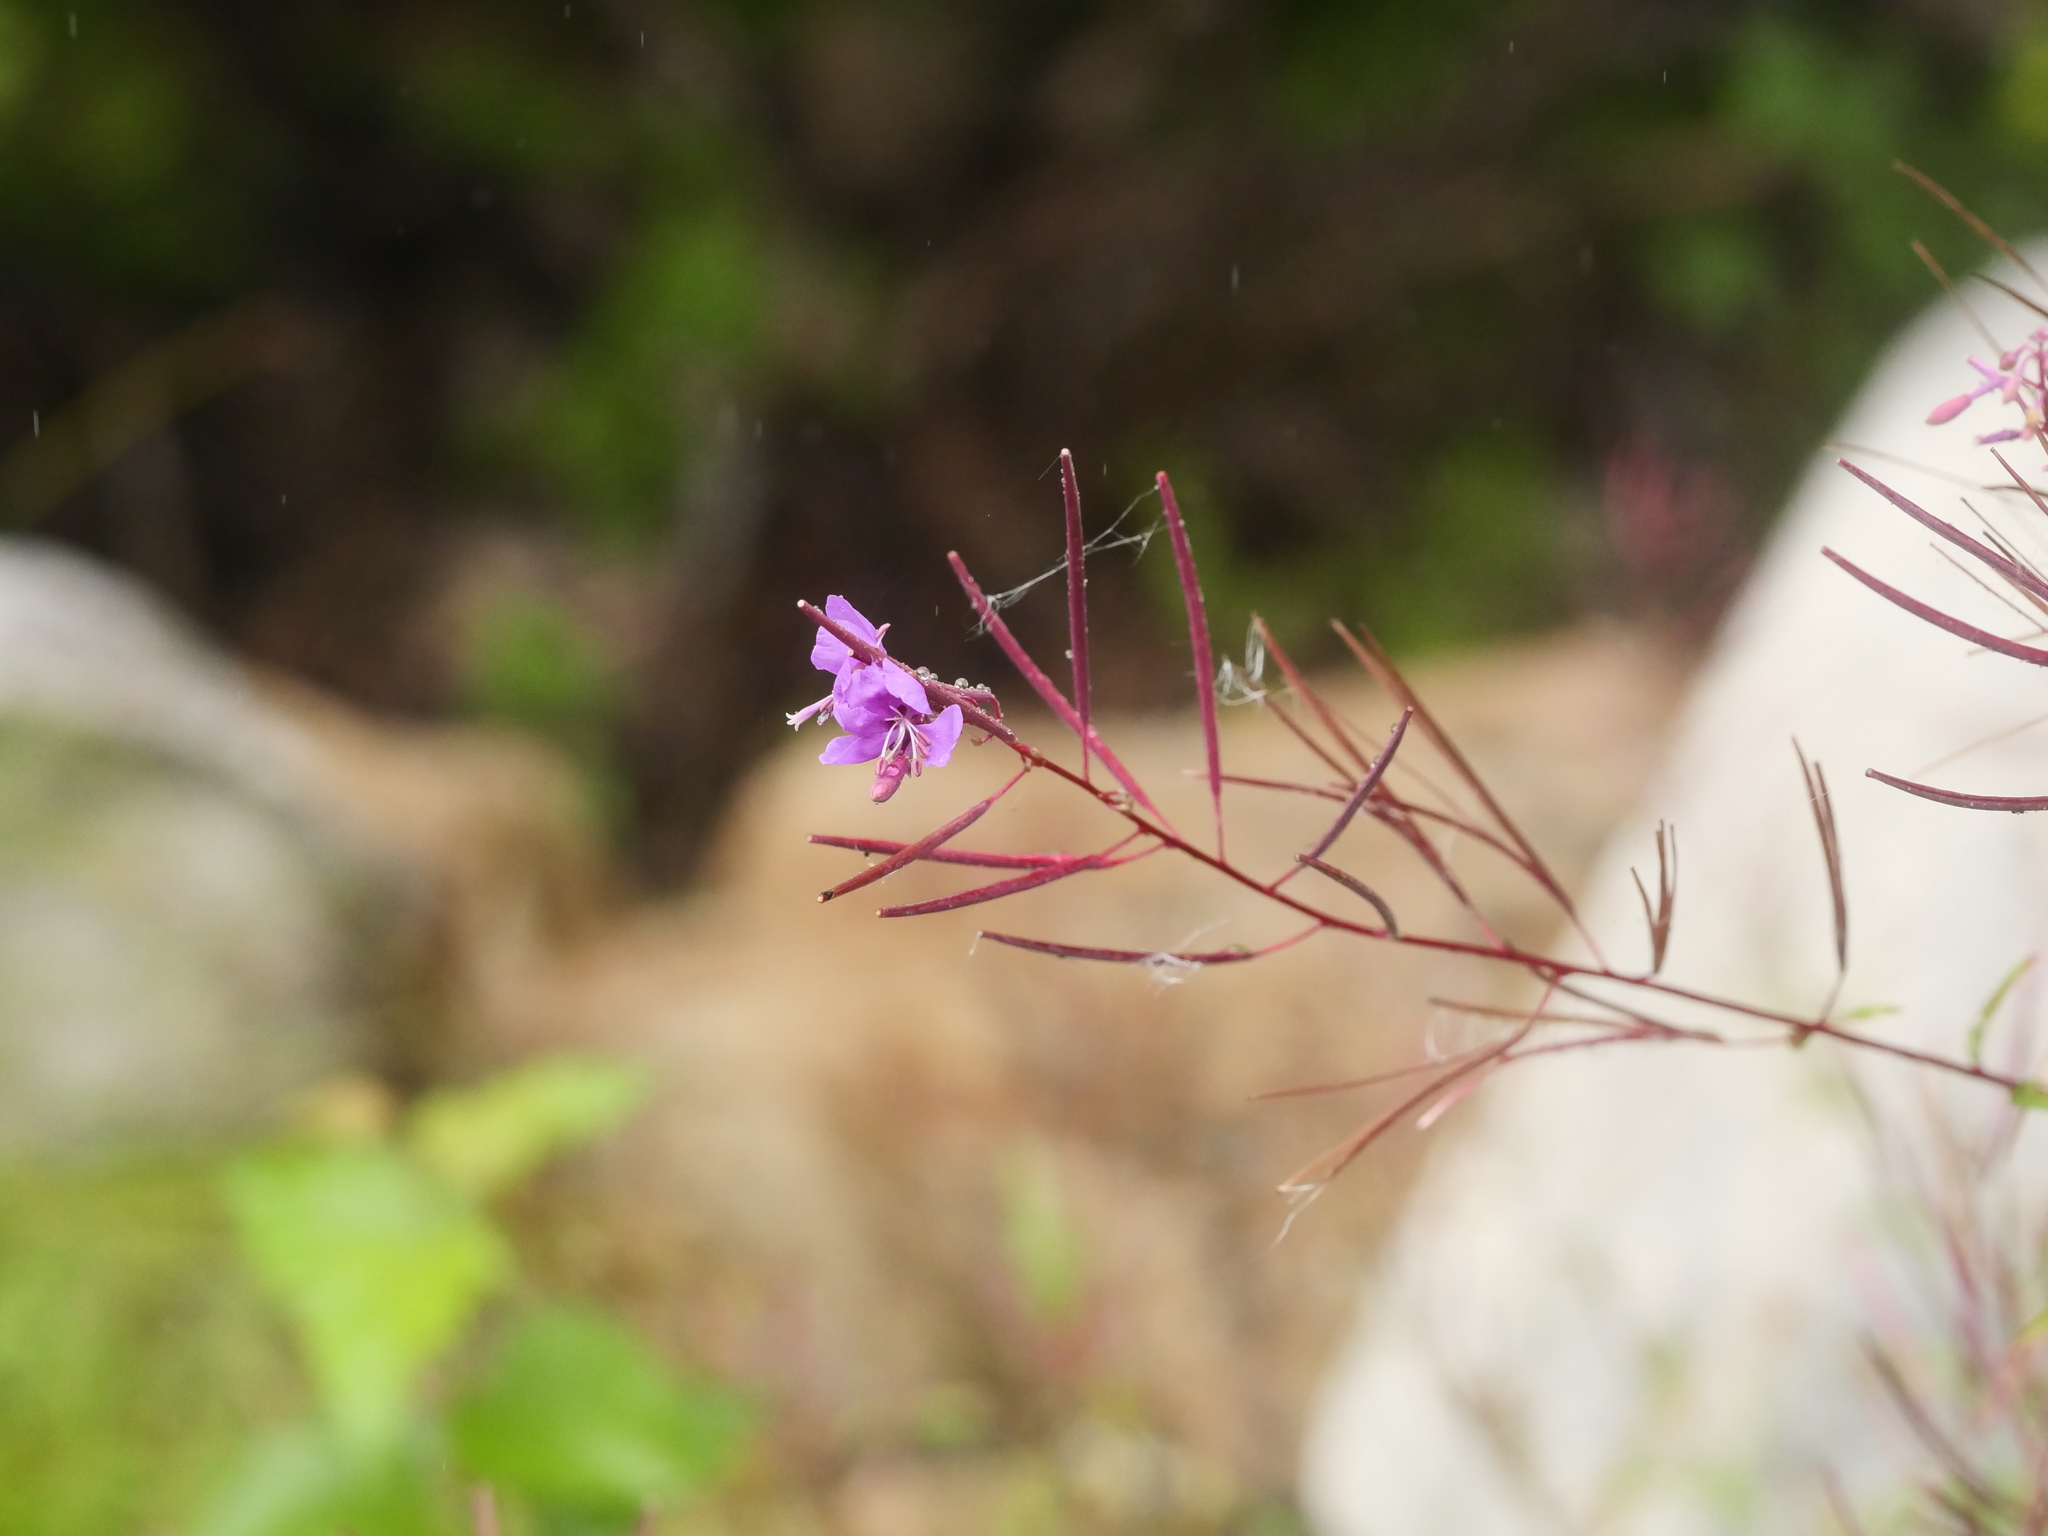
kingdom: Plantae
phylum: Tracheophyta
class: Magnoliopsida
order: Myrtales
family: Onagraceae
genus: Chamaenerion
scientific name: Chamaenerion angustifolium
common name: Fireweed
